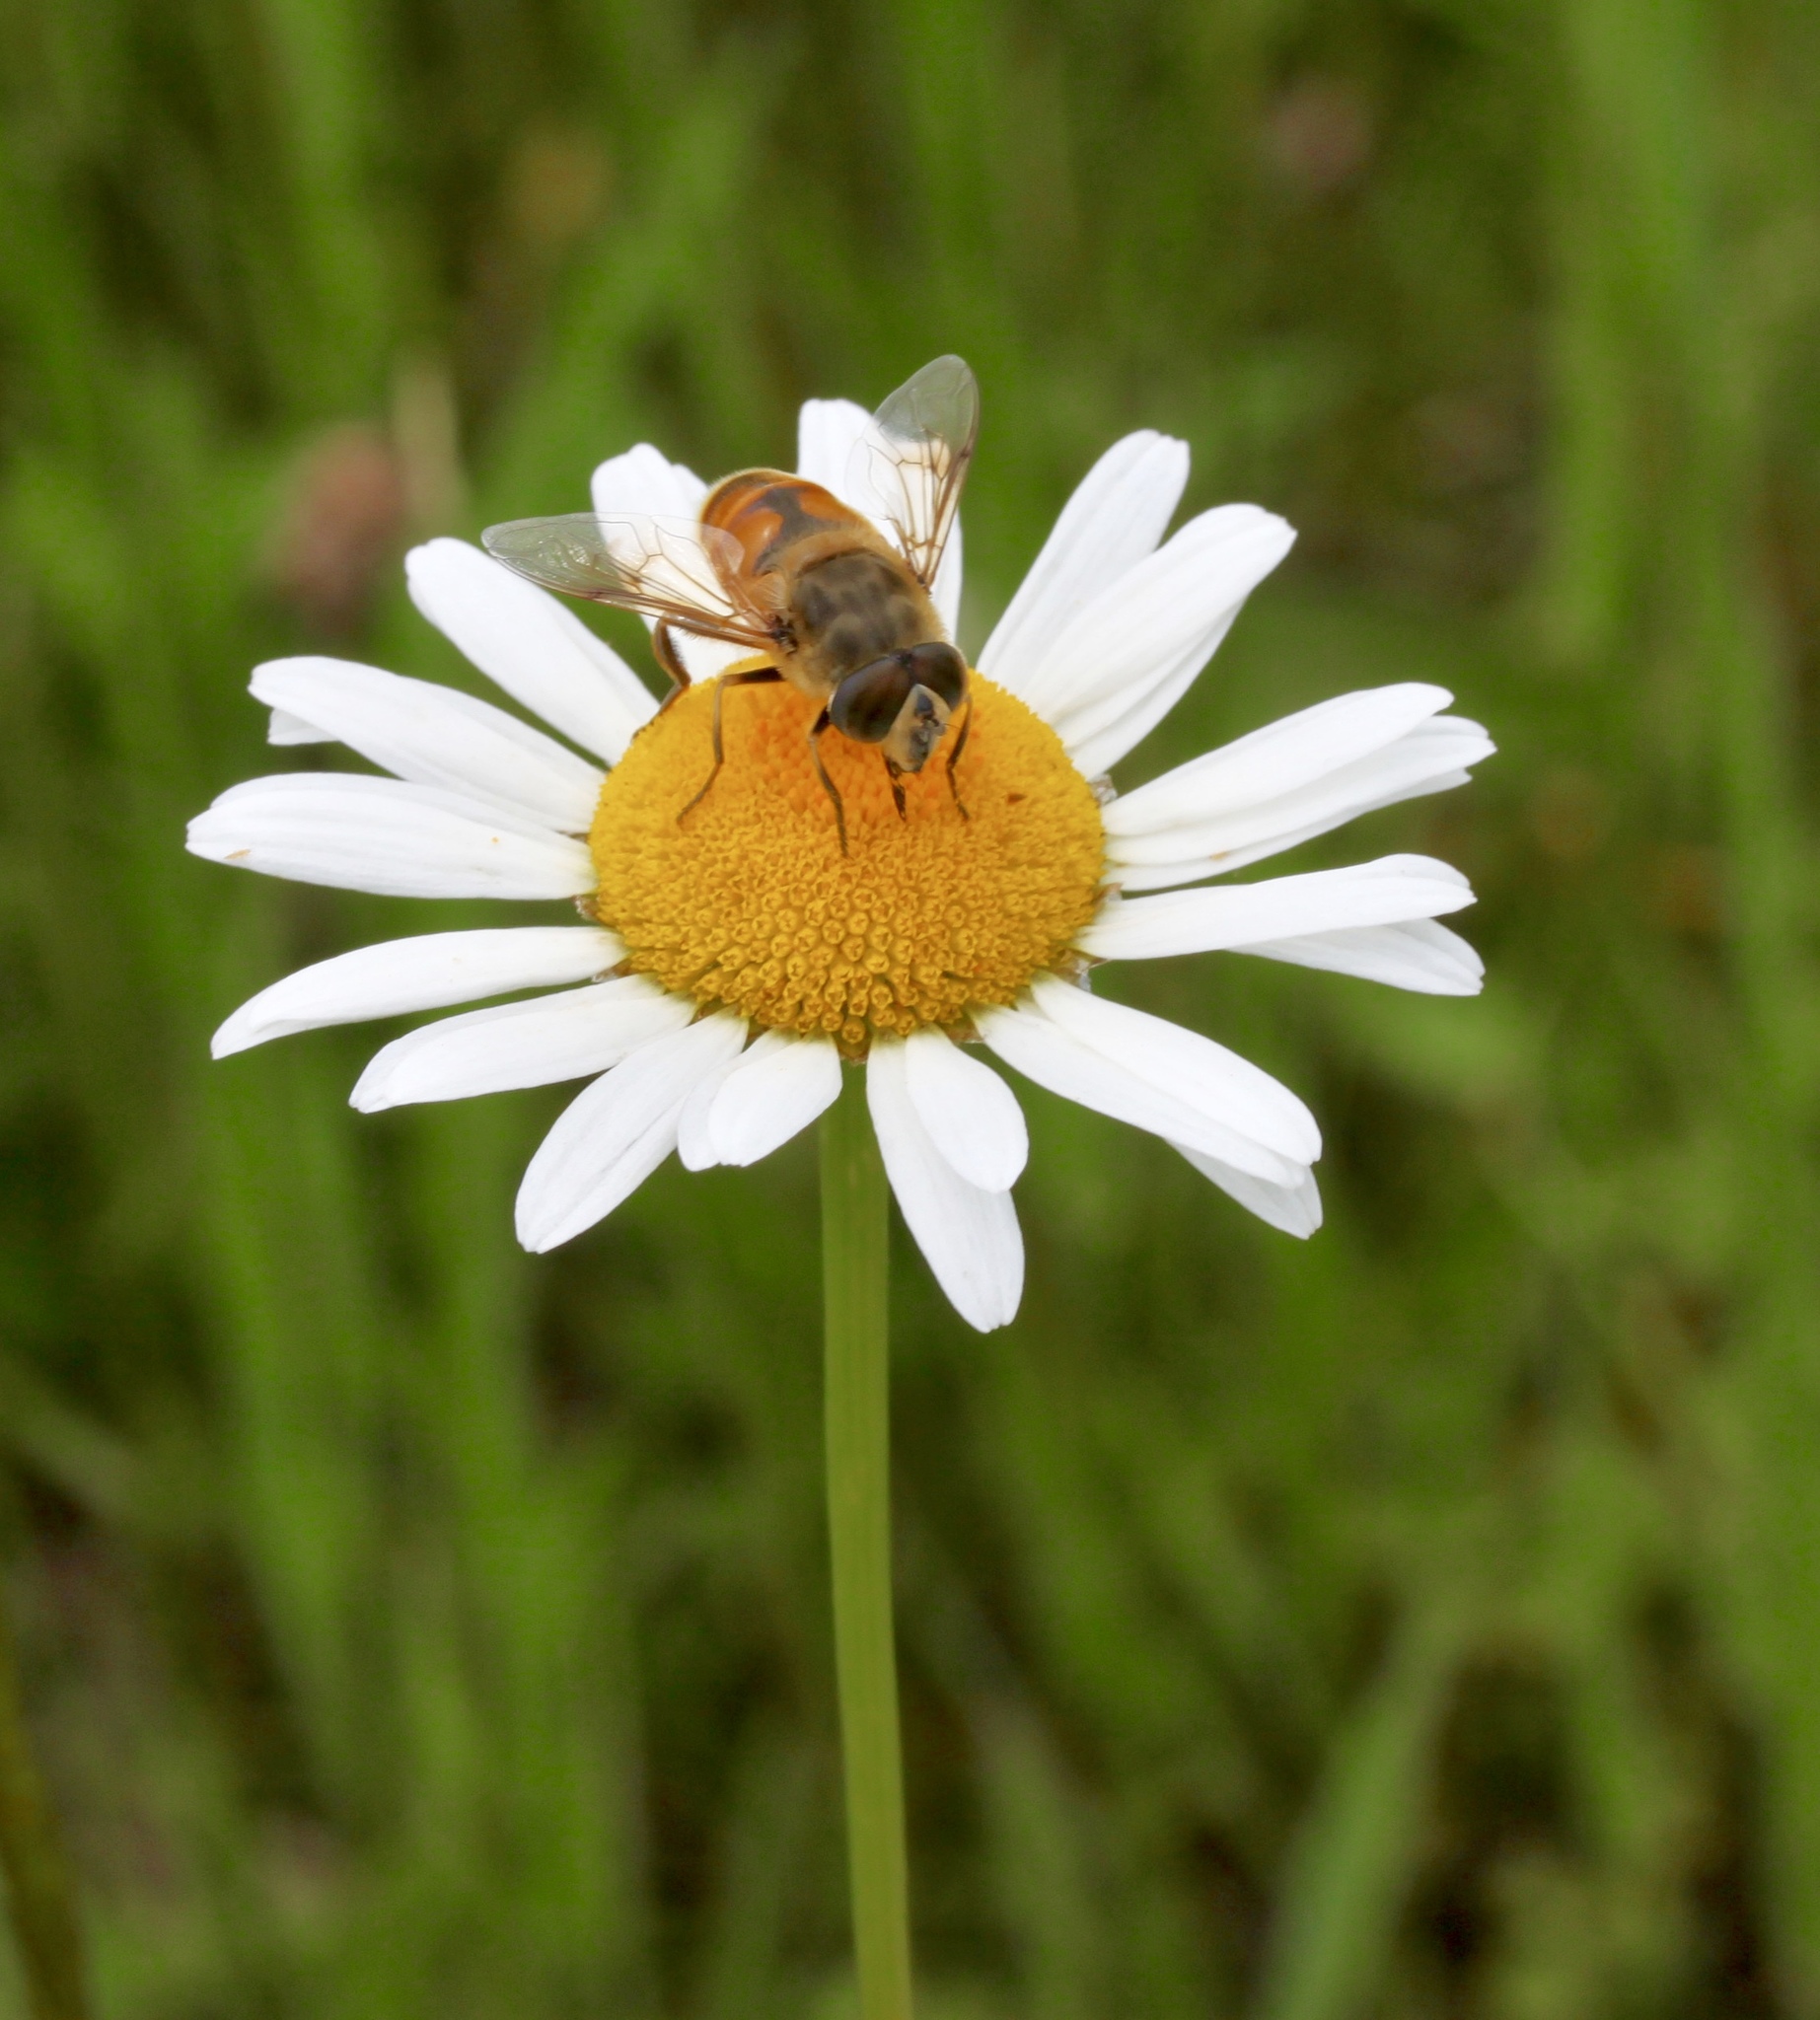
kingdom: Animalia
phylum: Arthropoda
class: Insecta
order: Diptera
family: Syrphidae
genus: Eristalis
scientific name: Eristalis tenax
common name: Drone fly
